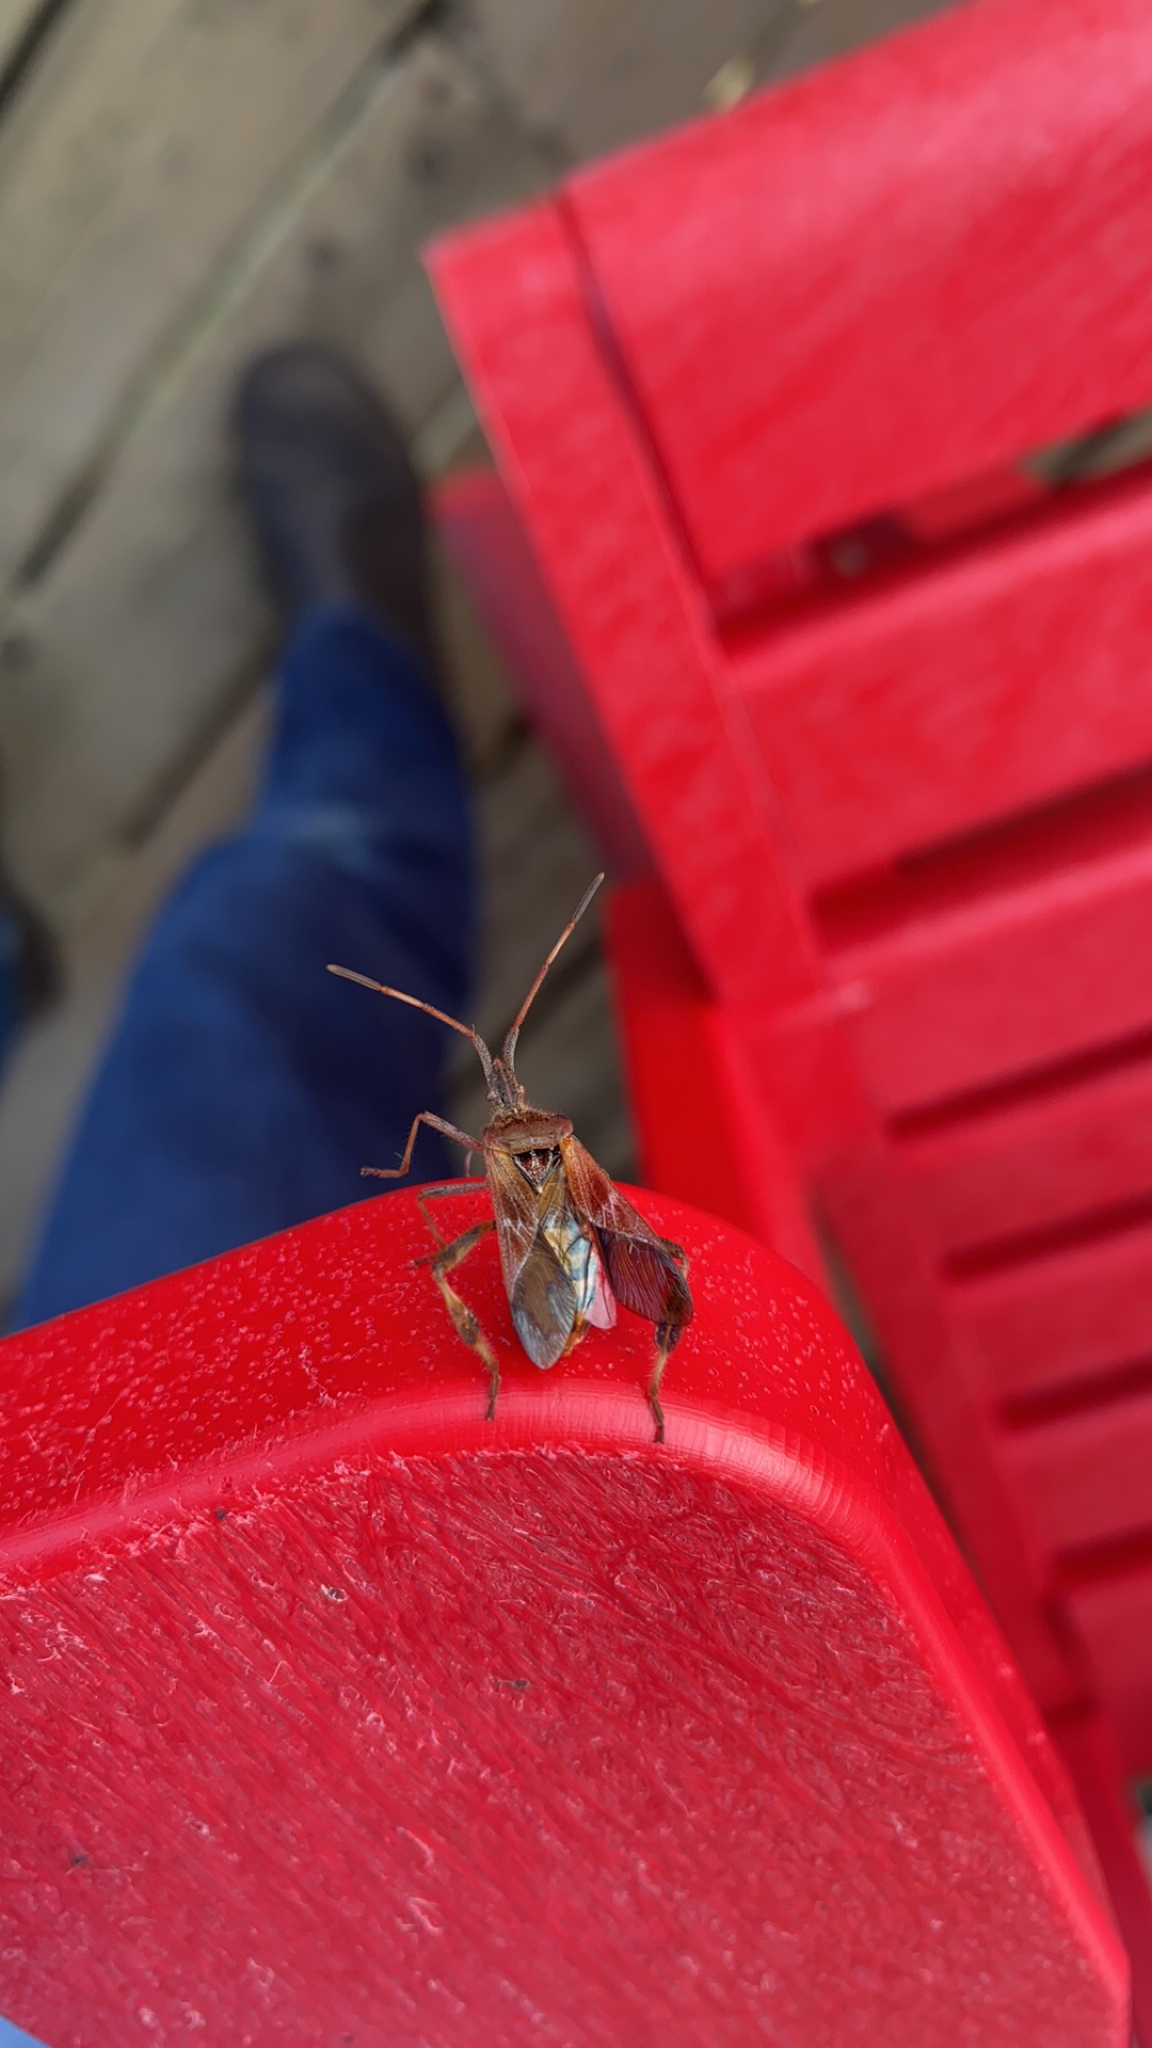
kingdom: Animalia
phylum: Arthropoda
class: Insecta
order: Hemiptera
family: Coreidae
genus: Leptoglossus
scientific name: Leptoglossus occidentalis
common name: Western conifer-seed bug
